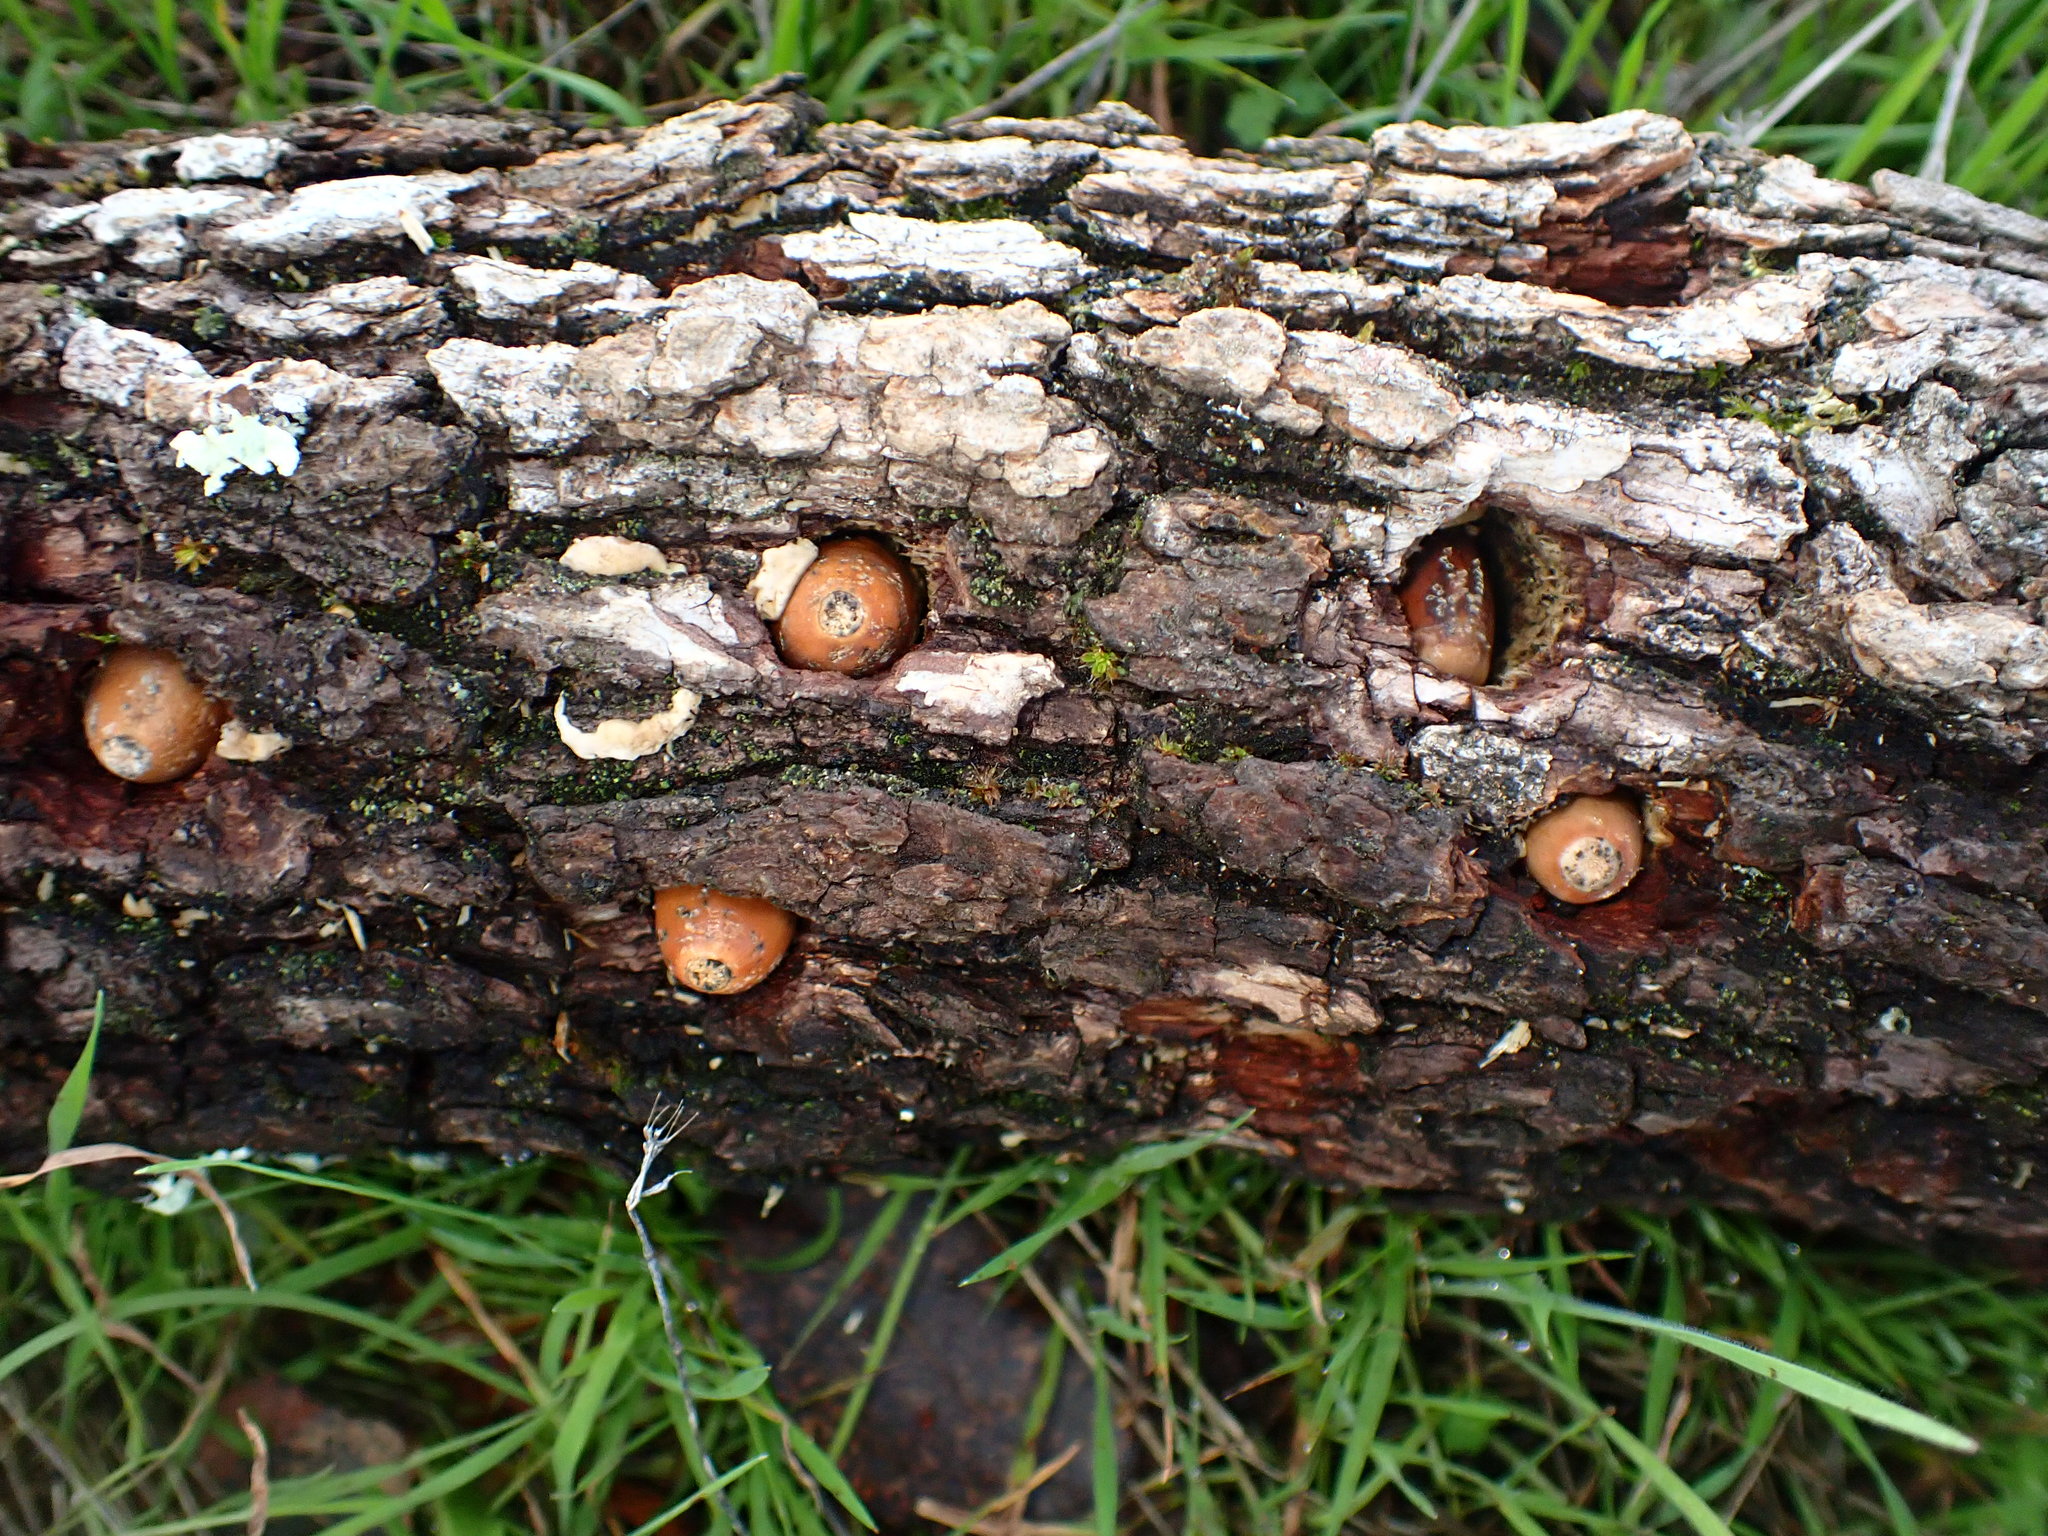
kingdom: Animalia
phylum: Chordata
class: Aves
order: Piciformes
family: Picidae
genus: Melanerpes
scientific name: Melanerpes formicivorus
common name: Acorn woodpecker
